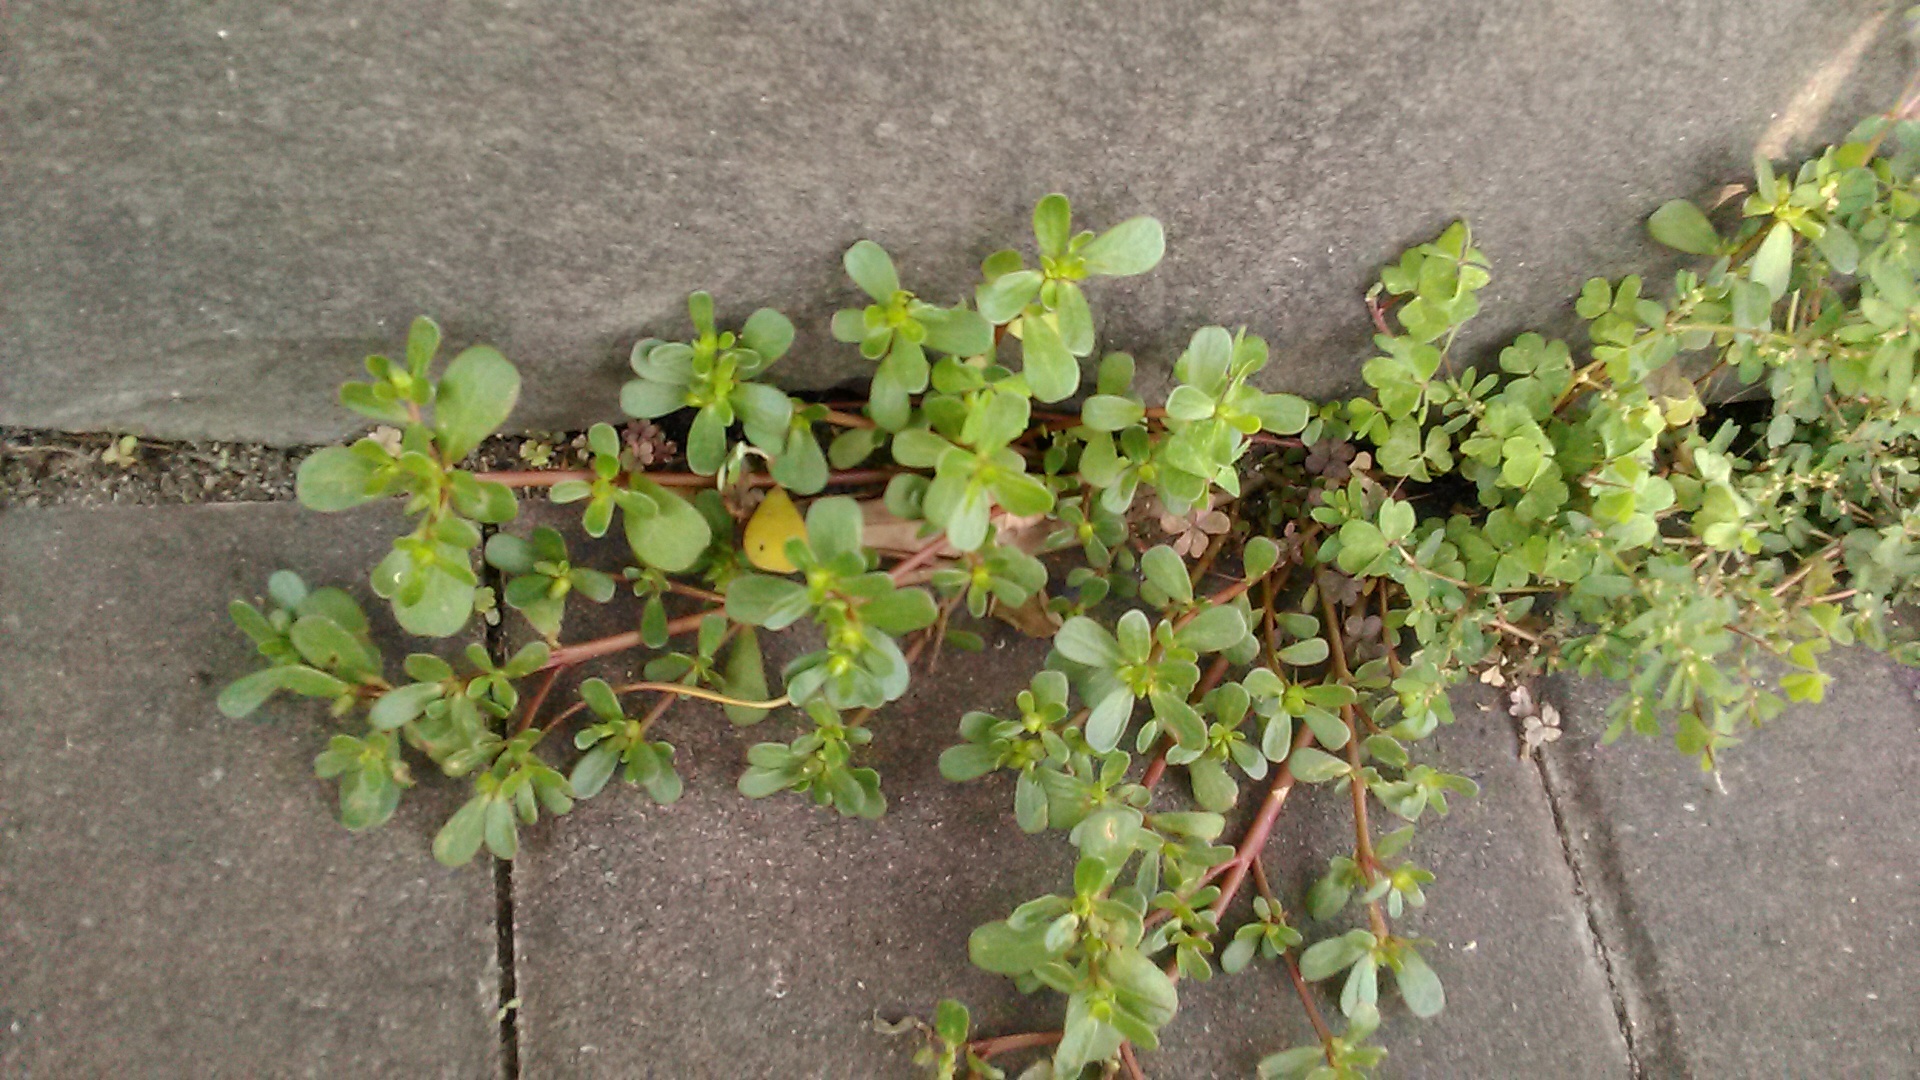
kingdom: Plantae
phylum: Tracheophyta
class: Magnoliopsida
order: Caryophyllales
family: Portulacaceae
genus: Portulaca
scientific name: Portulaca oleracea
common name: Common purslane
